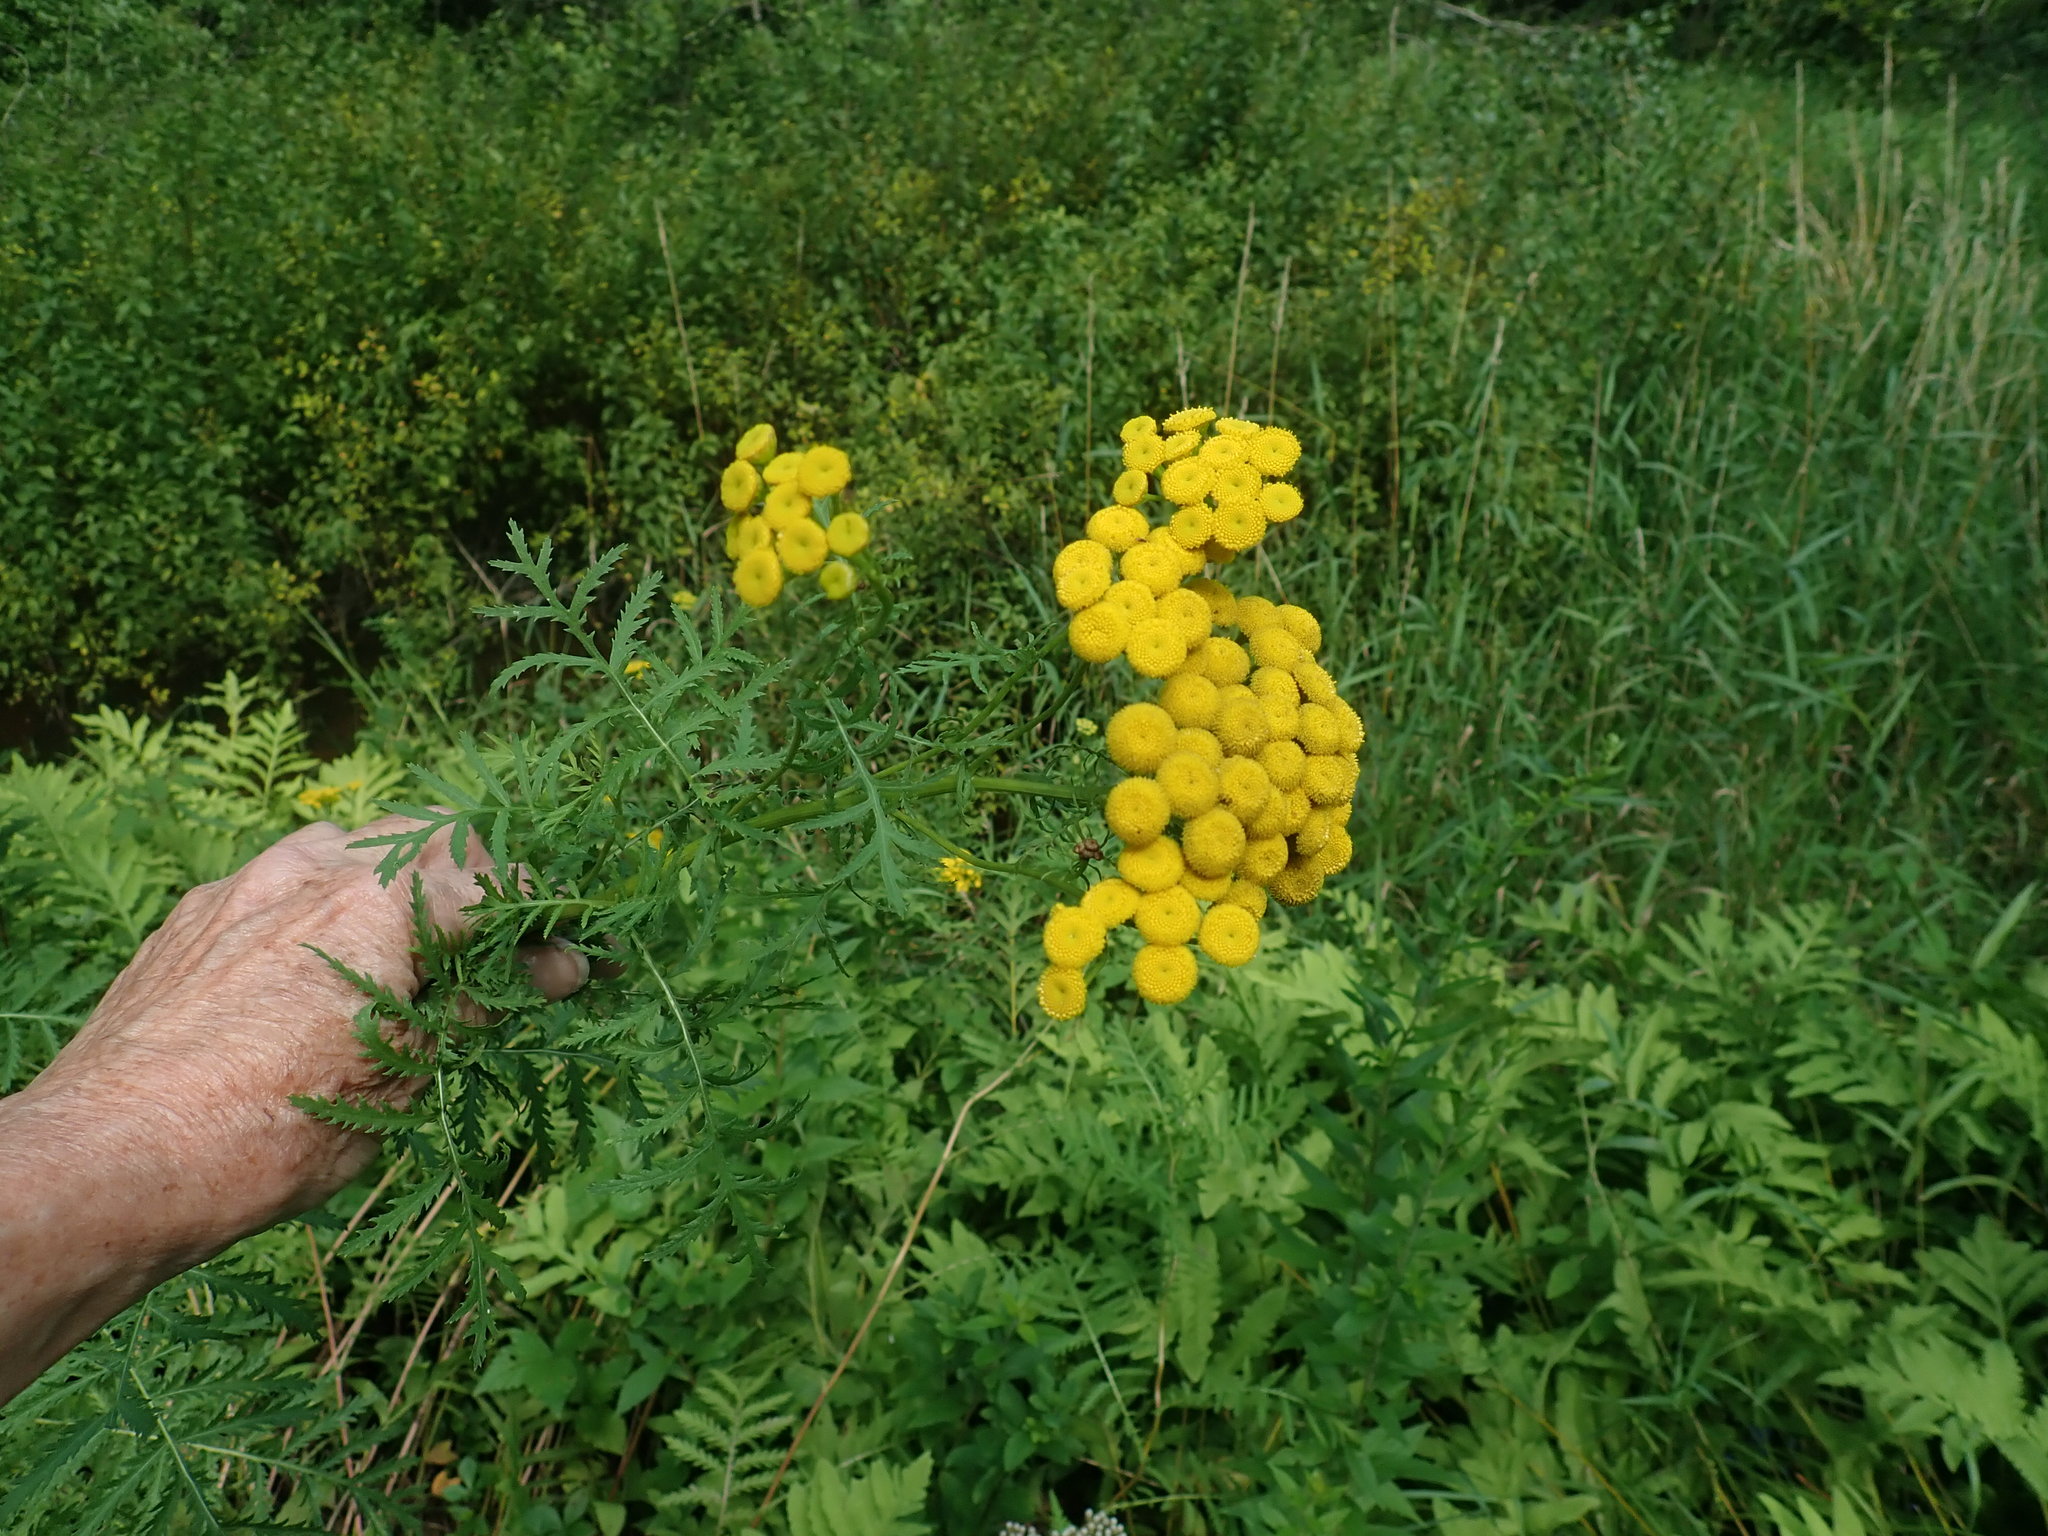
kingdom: Plantae
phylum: Tracheophyta
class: Magnoliopsida
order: Asterales
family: Asteraceae
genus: Tanacetum
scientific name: Tanacetum vulgare
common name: Common tansy
